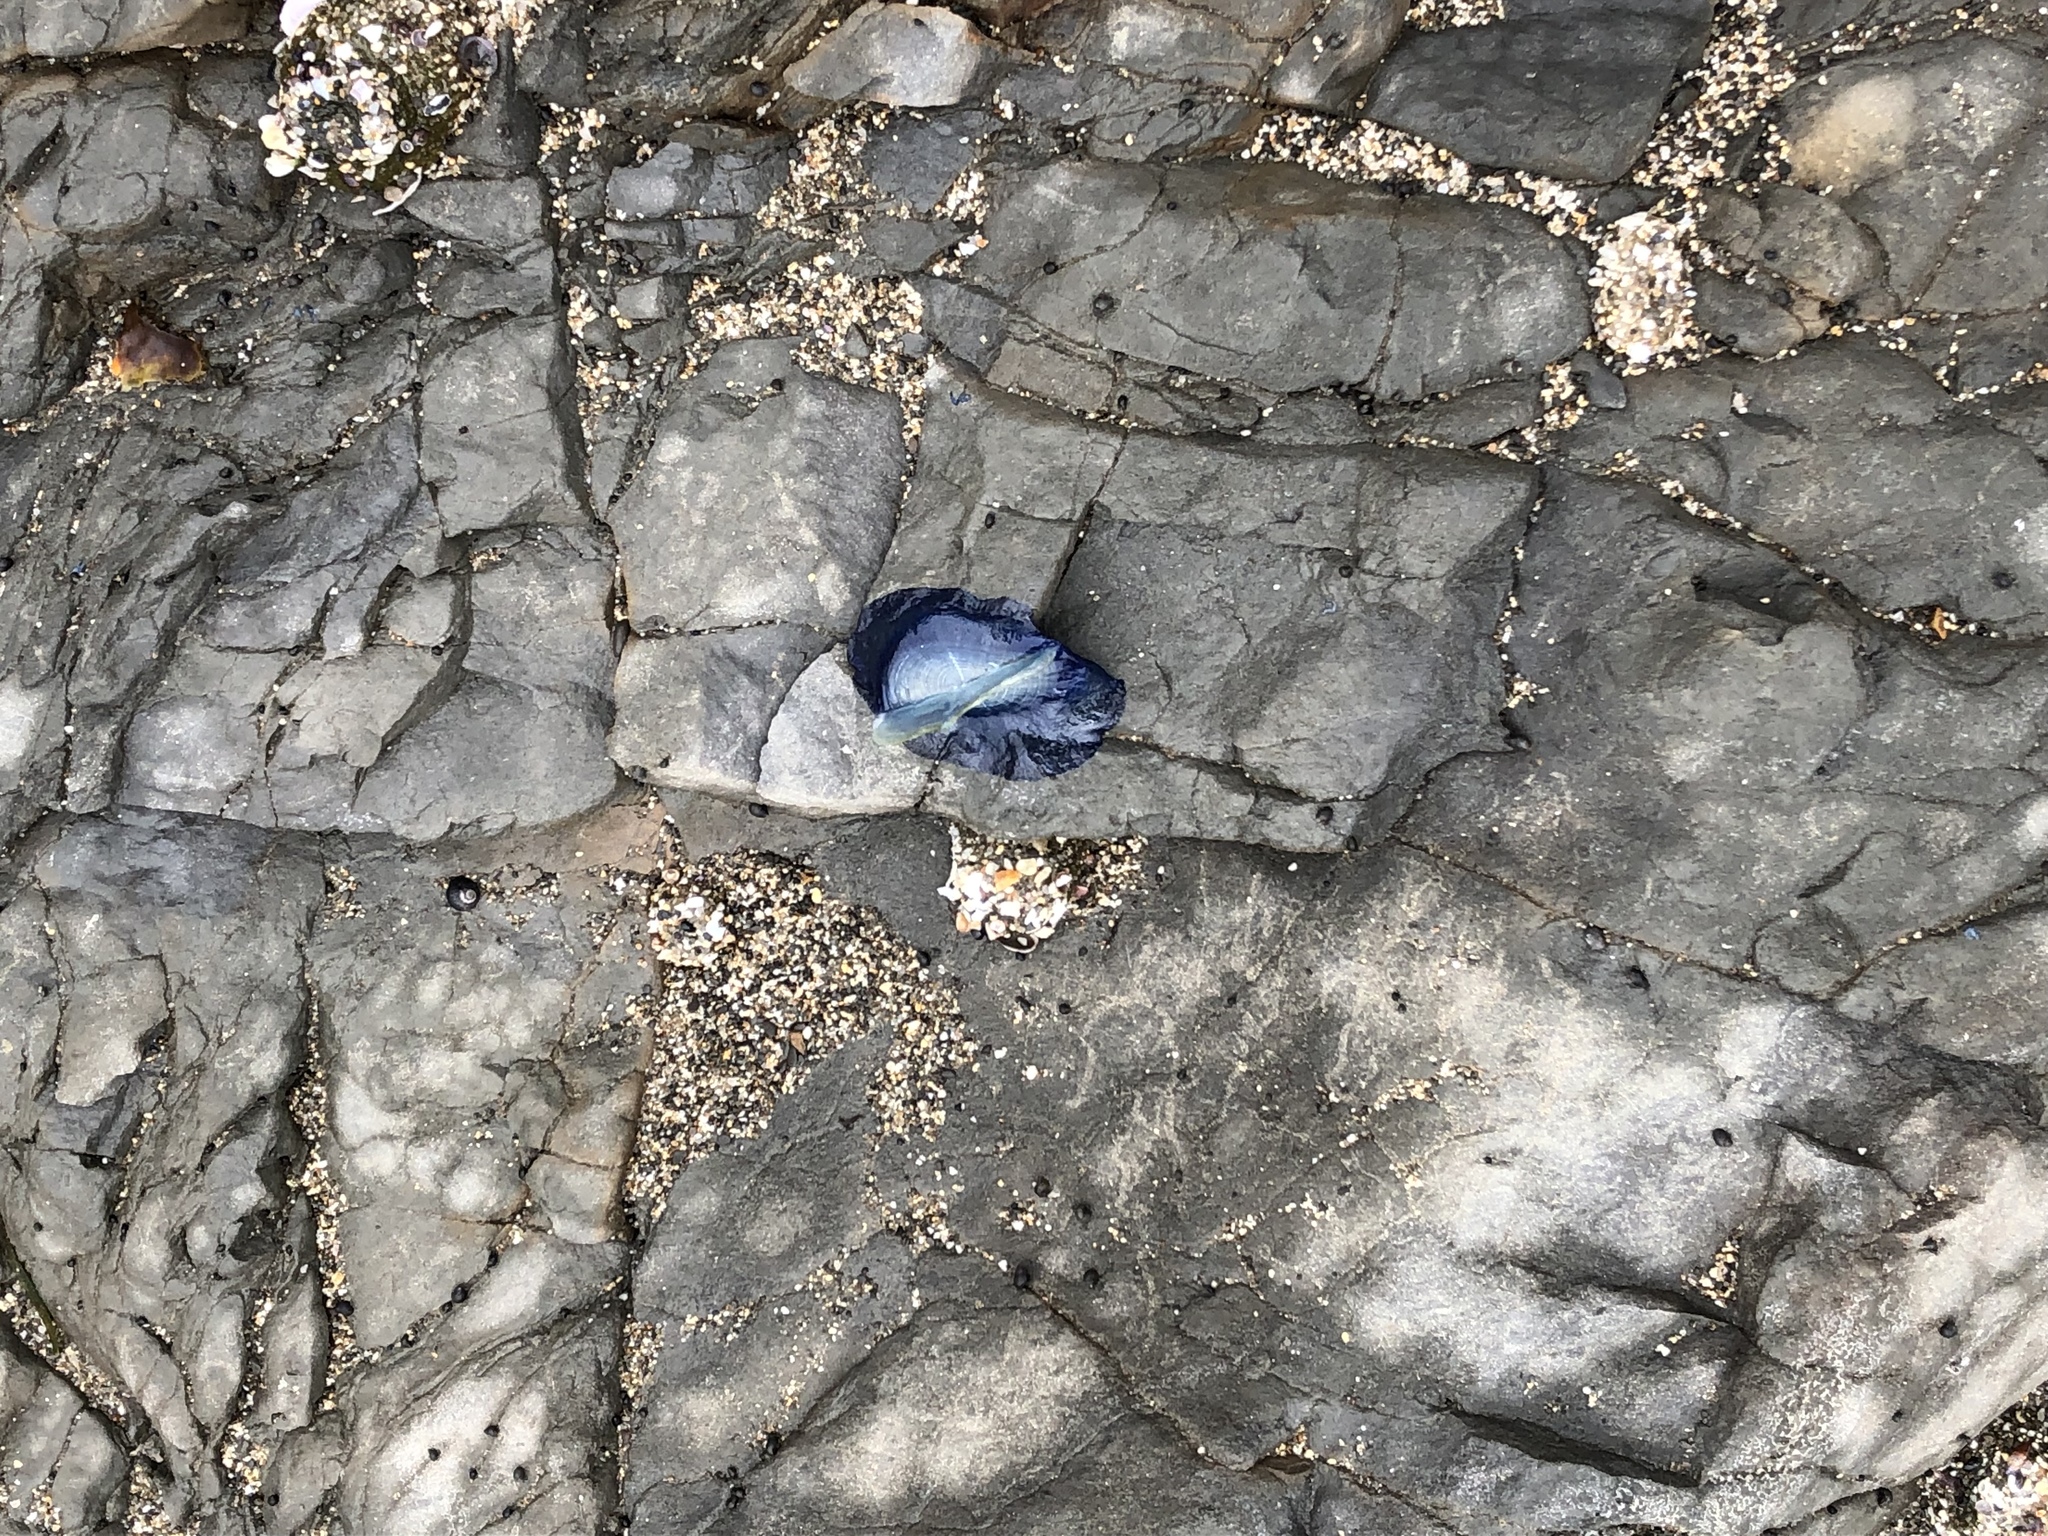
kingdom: Animalia
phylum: Cnidaria
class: Hydrozoa
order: Anthoathecata
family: Porpitidae
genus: Velella
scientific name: Velella velella
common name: By-the-wind-sailor
